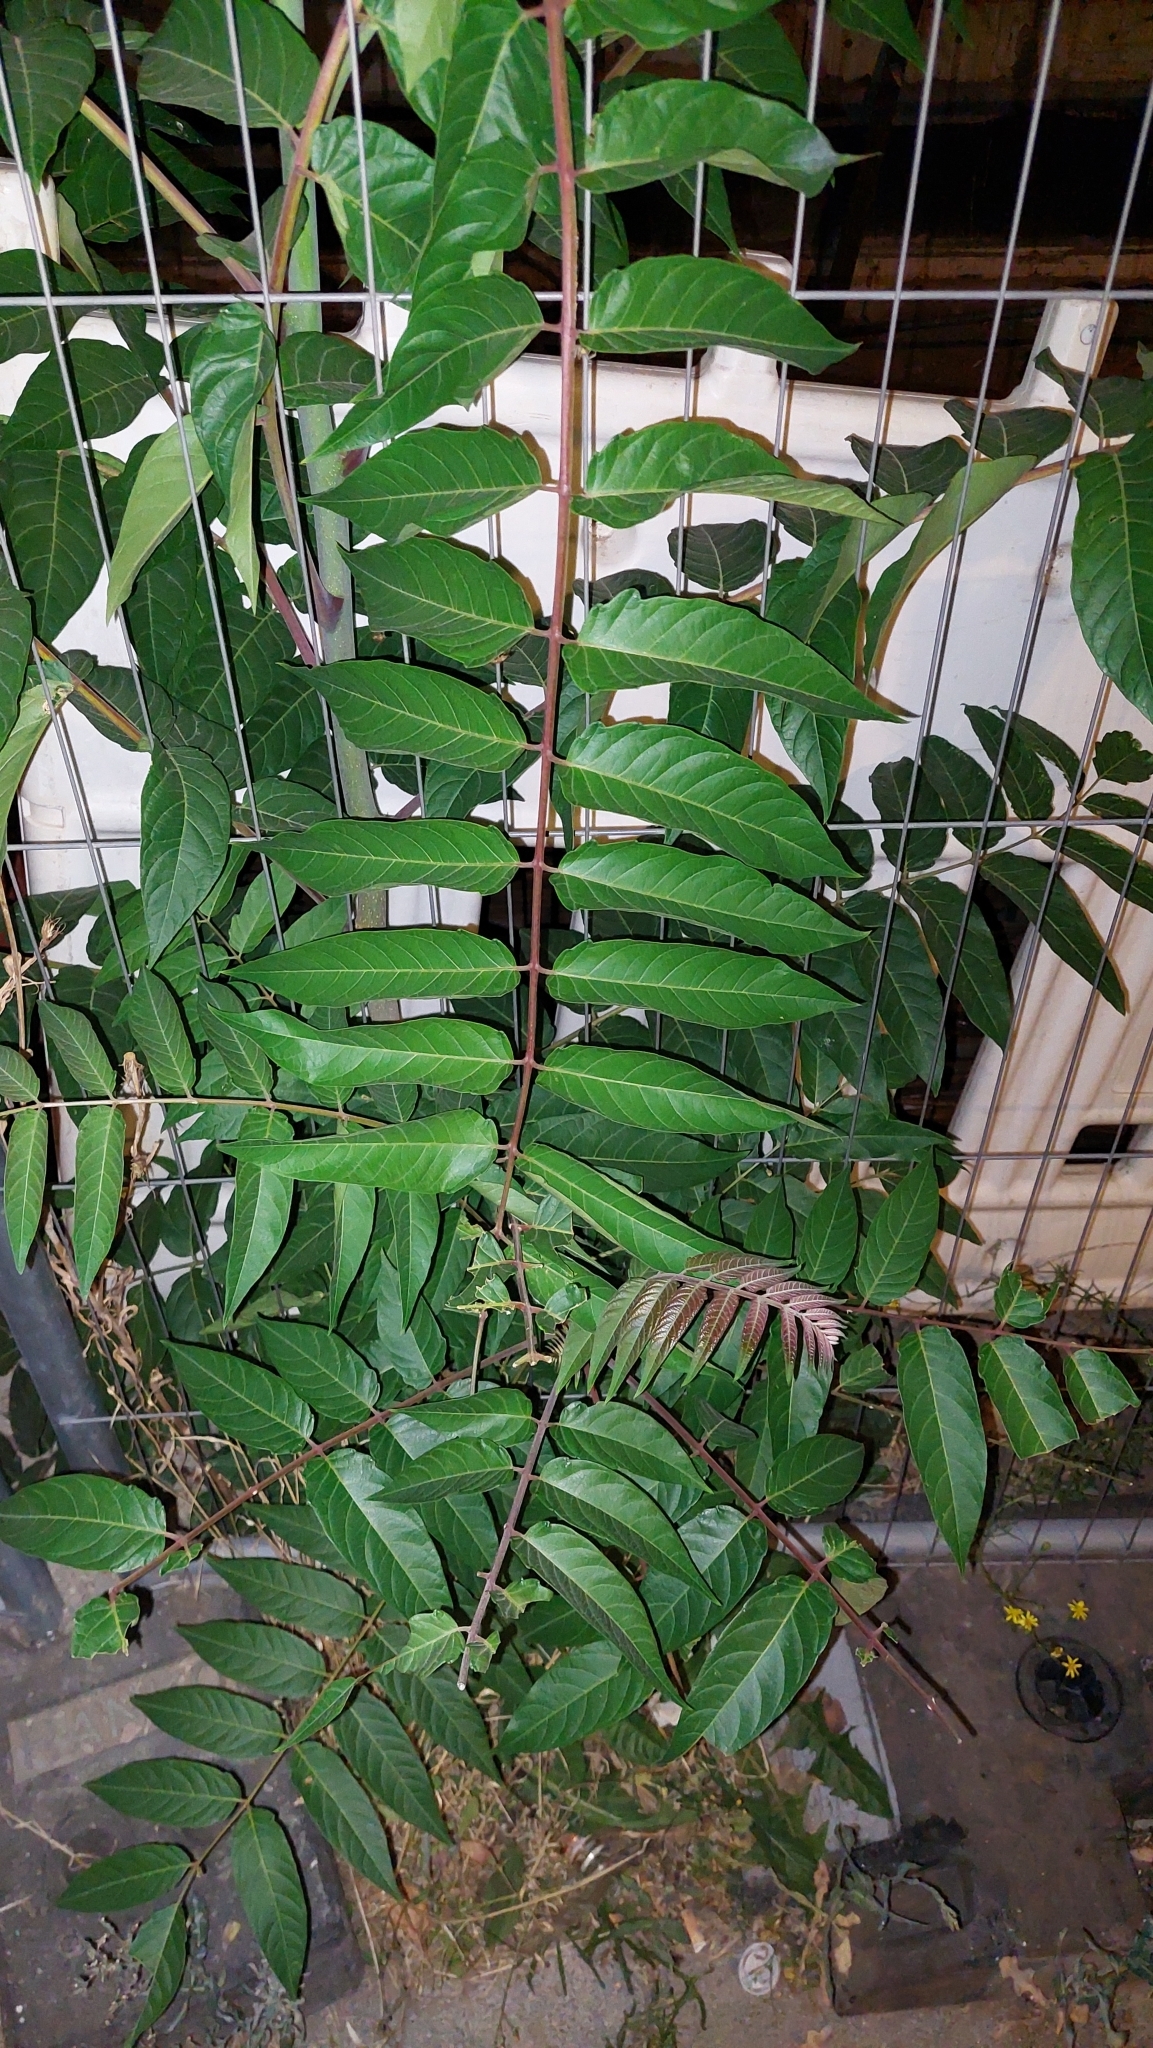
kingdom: Plantae
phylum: Tracheophyta
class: Magnoliopsida
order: Sapindales
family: Simaroubaceae
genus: Ailanthus
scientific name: Ailanthus altissima
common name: Tree-of-heaven
